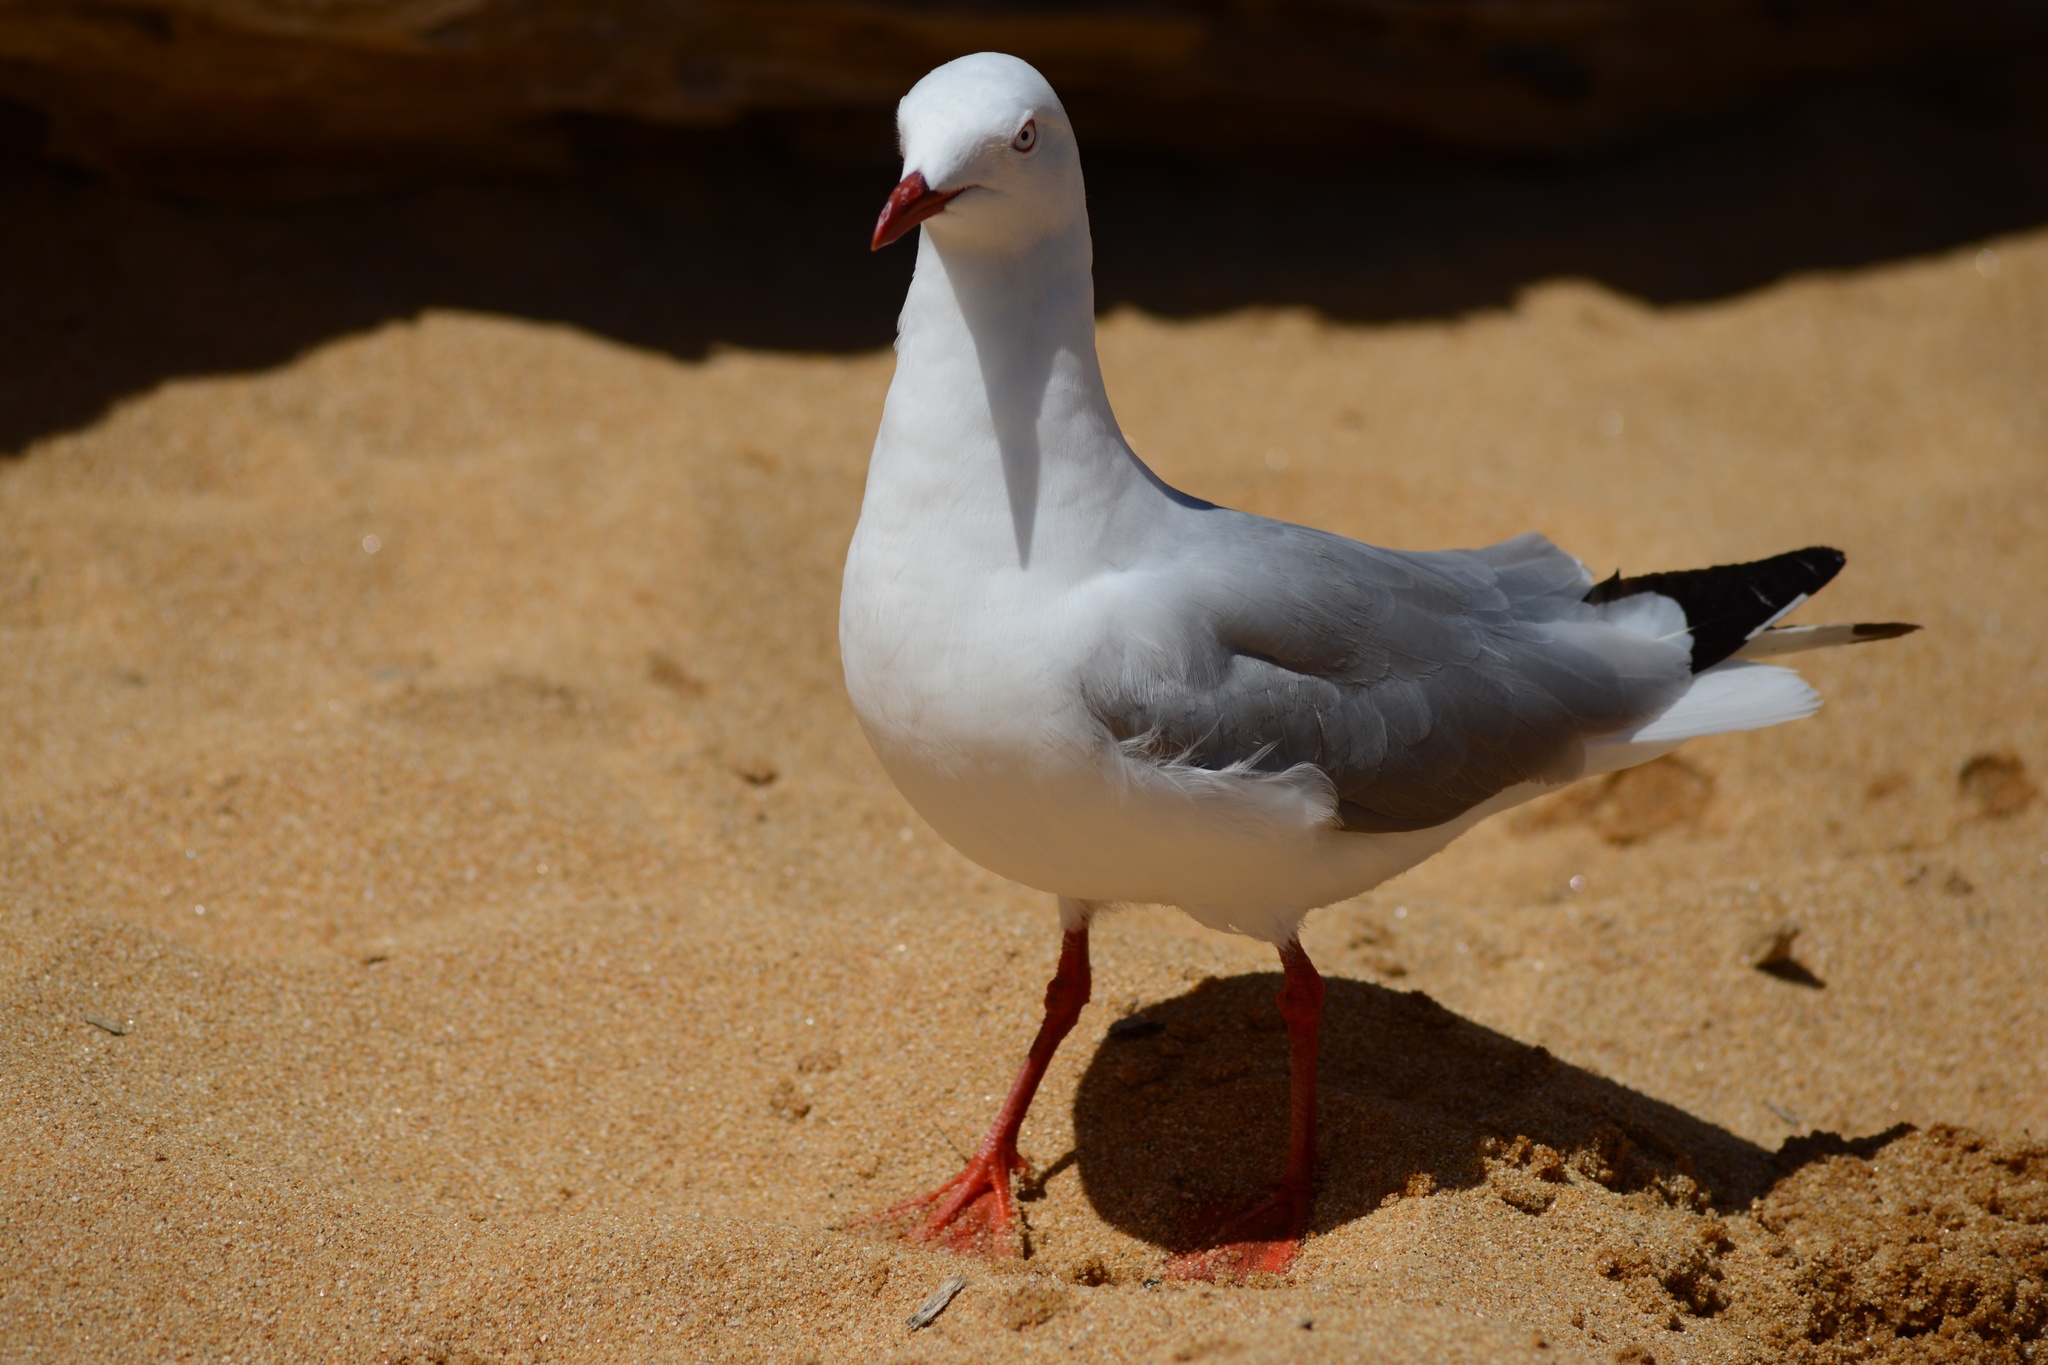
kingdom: Animalia
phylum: Chordata
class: Aves
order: Charadriiformes
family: Laridae
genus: Chroicocephalus
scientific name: Chroicocephalus novaehollandiae
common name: Silver gull
